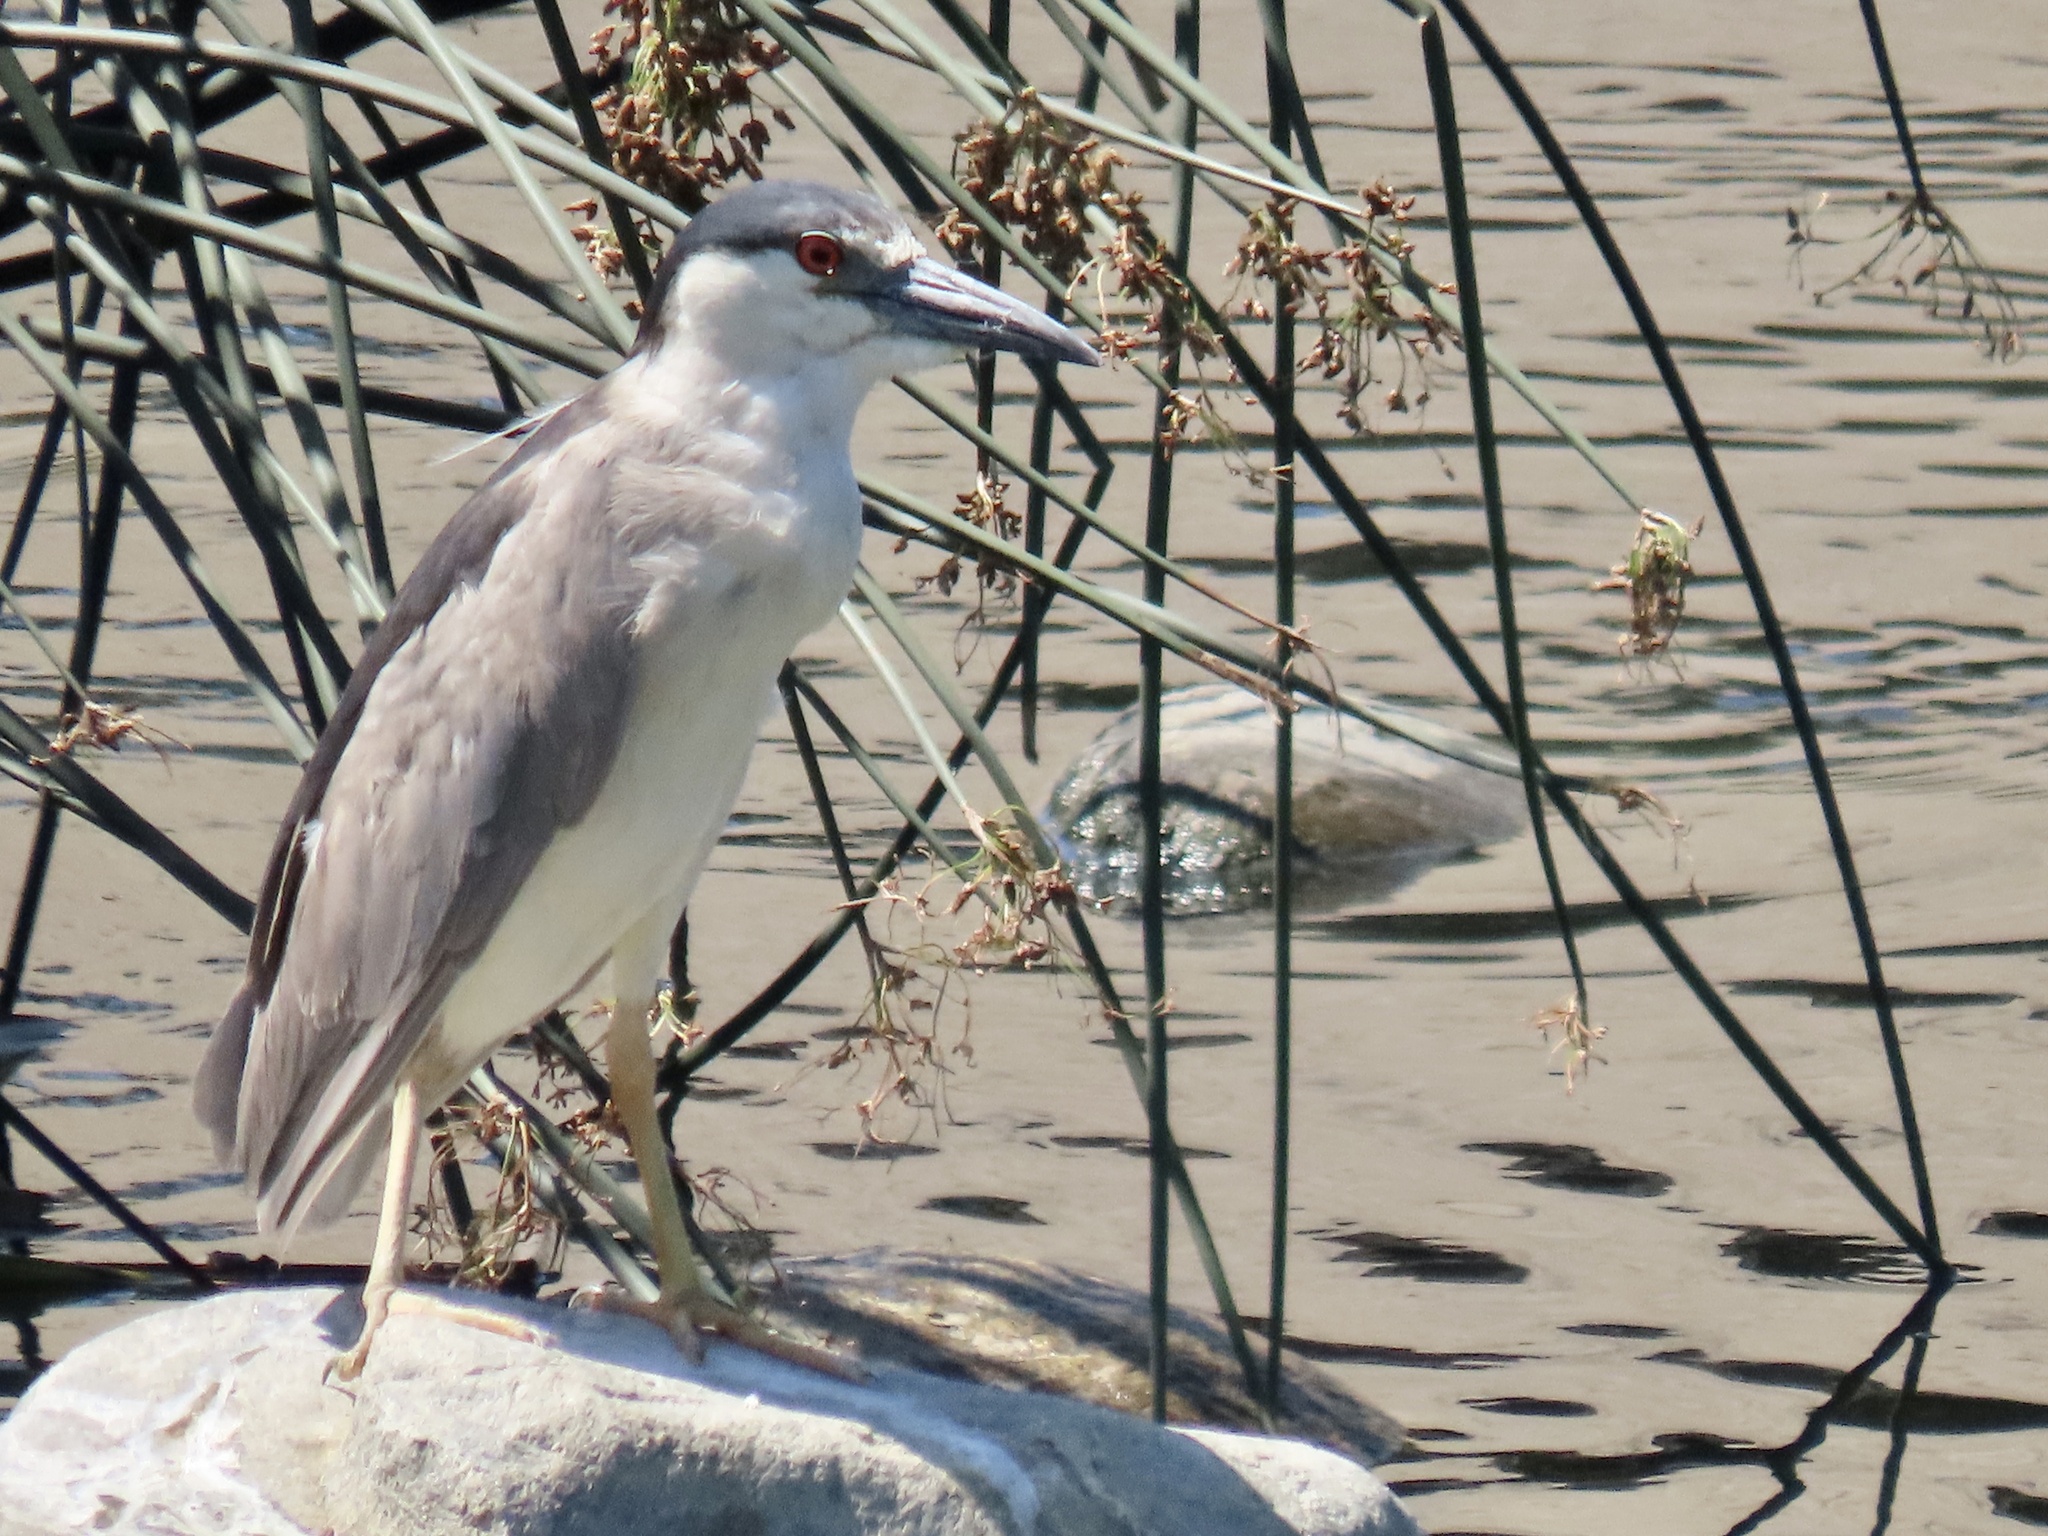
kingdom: Animalia
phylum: Chordata
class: Aves
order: Pelecaniformes
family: Ardeidae
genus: Nycticorax
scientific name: Nycticorax nycticorax
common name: Black-crowned night heron
